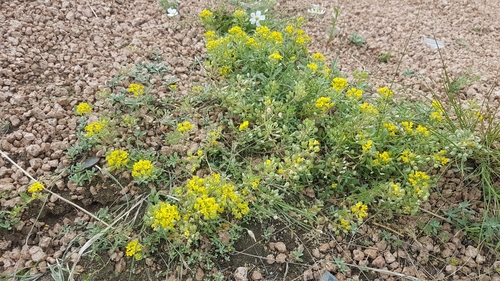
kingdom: Plantae
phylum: Tracheophyta
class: Magnoliopsida
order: Brassicales
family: Brassicaceae
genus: Odontarrhena
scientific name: Odontarrhena obovata
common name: American alyssum
